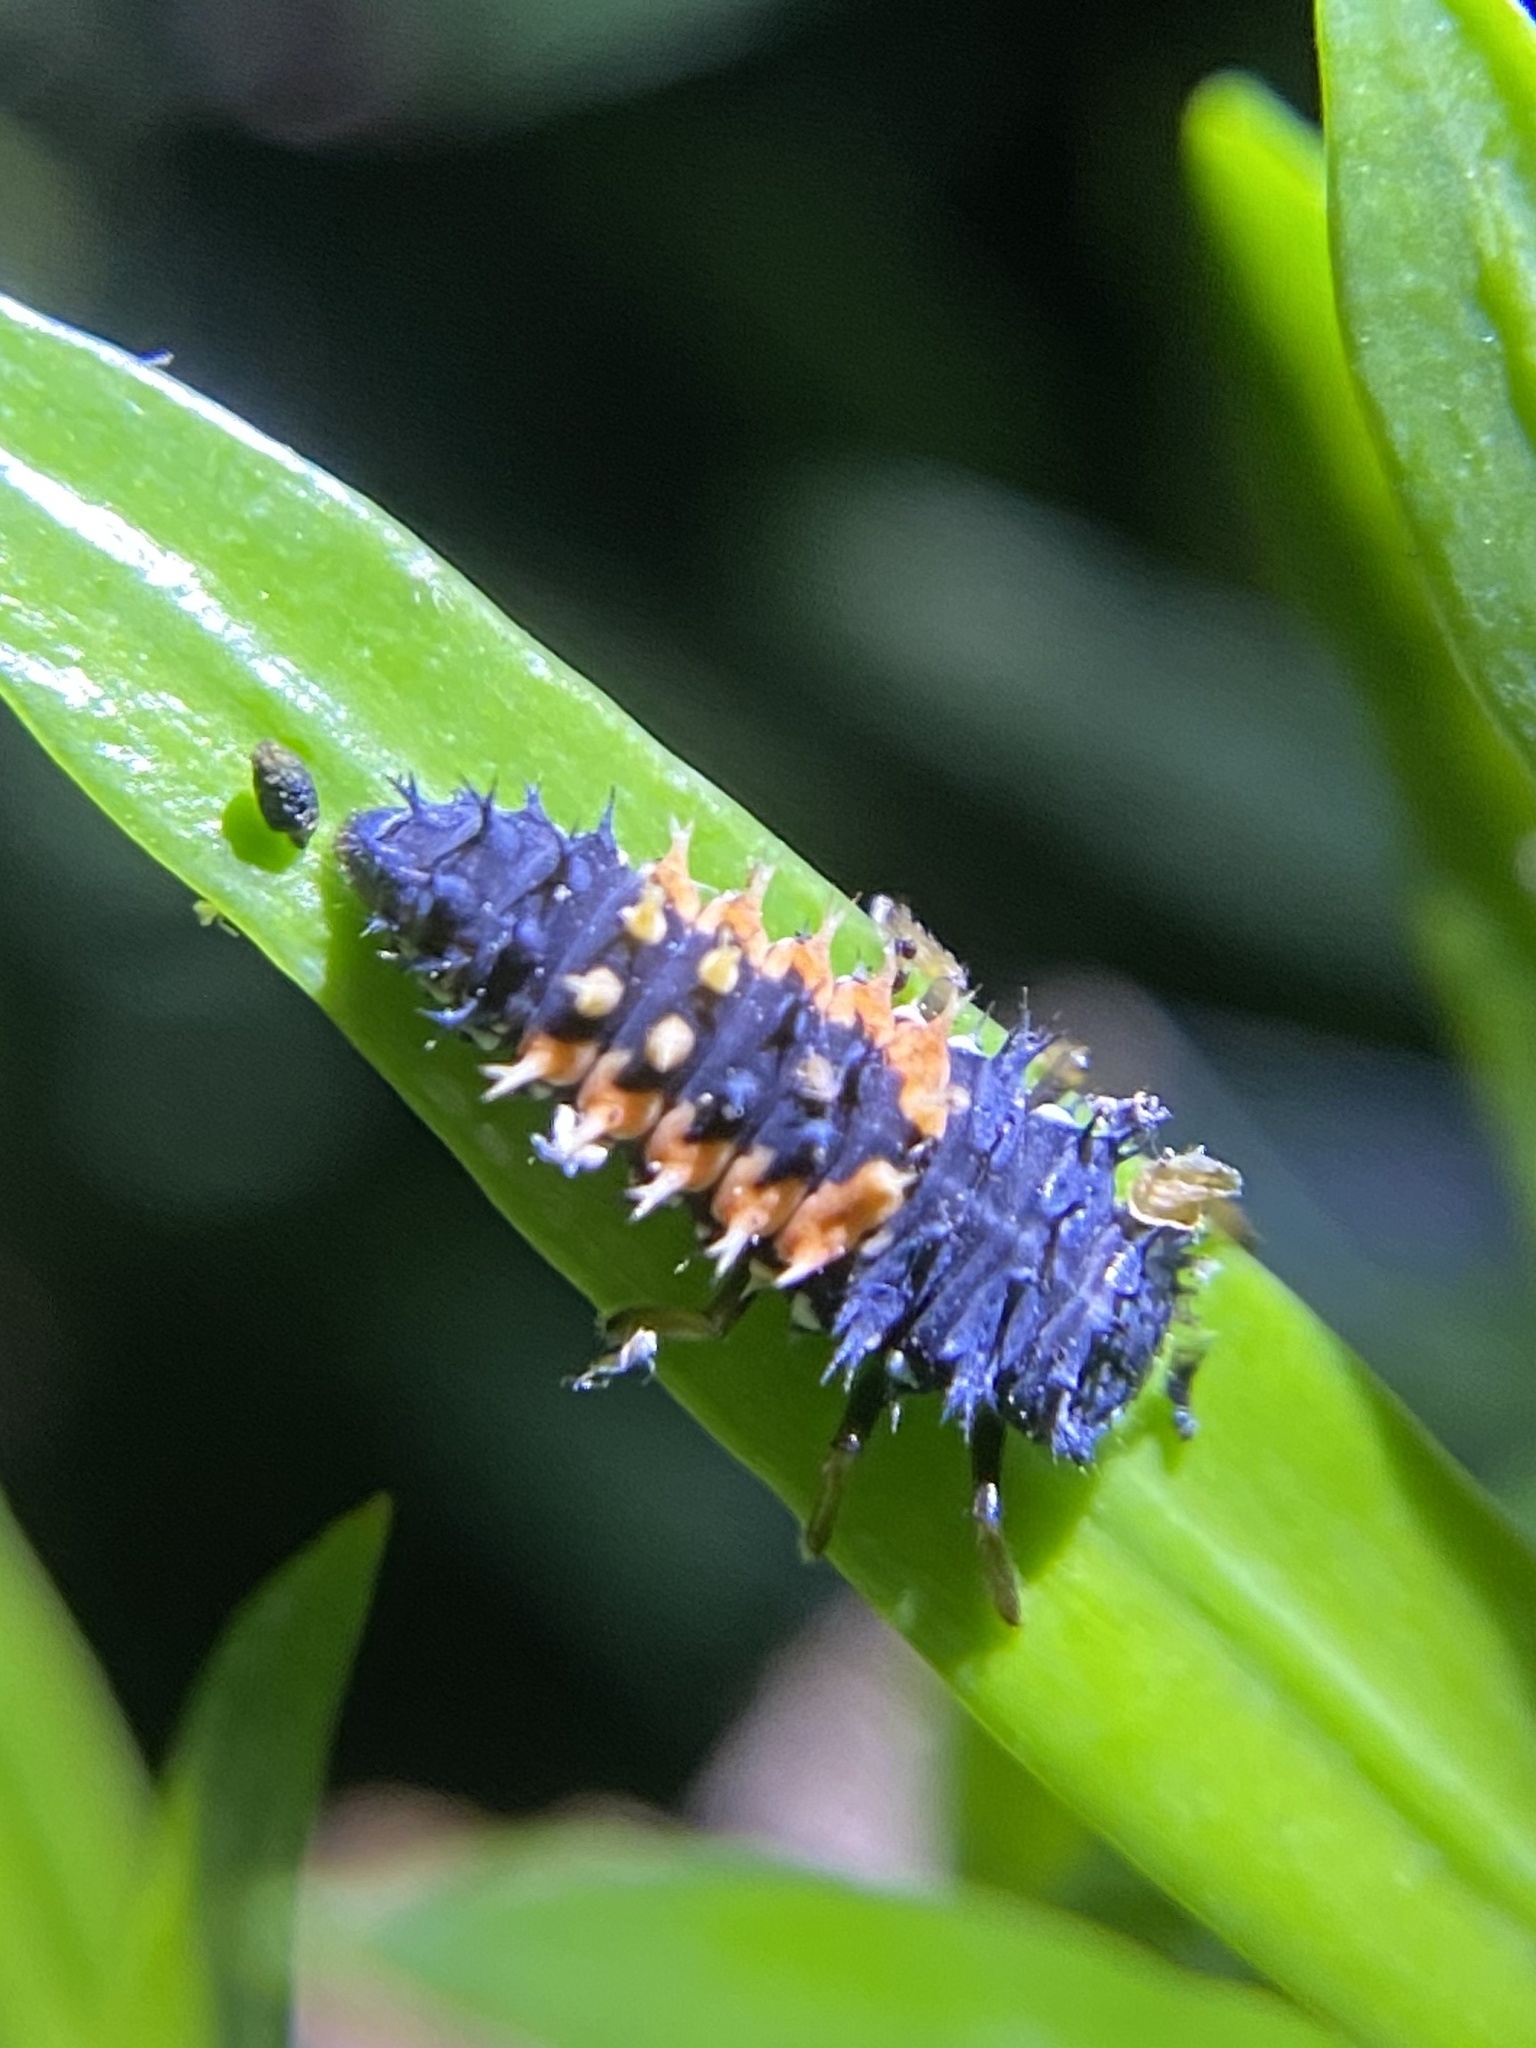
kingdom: Animalia
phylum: Arthropoda
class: Insecta
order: Coleoptera
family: Coccinellidae
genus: Harmonia
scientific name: Harmonia axyridis
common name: Harlequin ladybird
